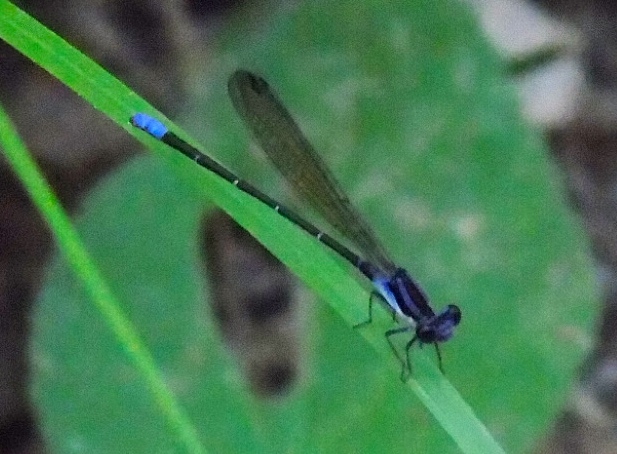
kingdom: Animalia
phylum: Arthropoda
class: Insecta
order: Odonata
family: Coenagrionidae
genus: Argia
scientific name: Argia
